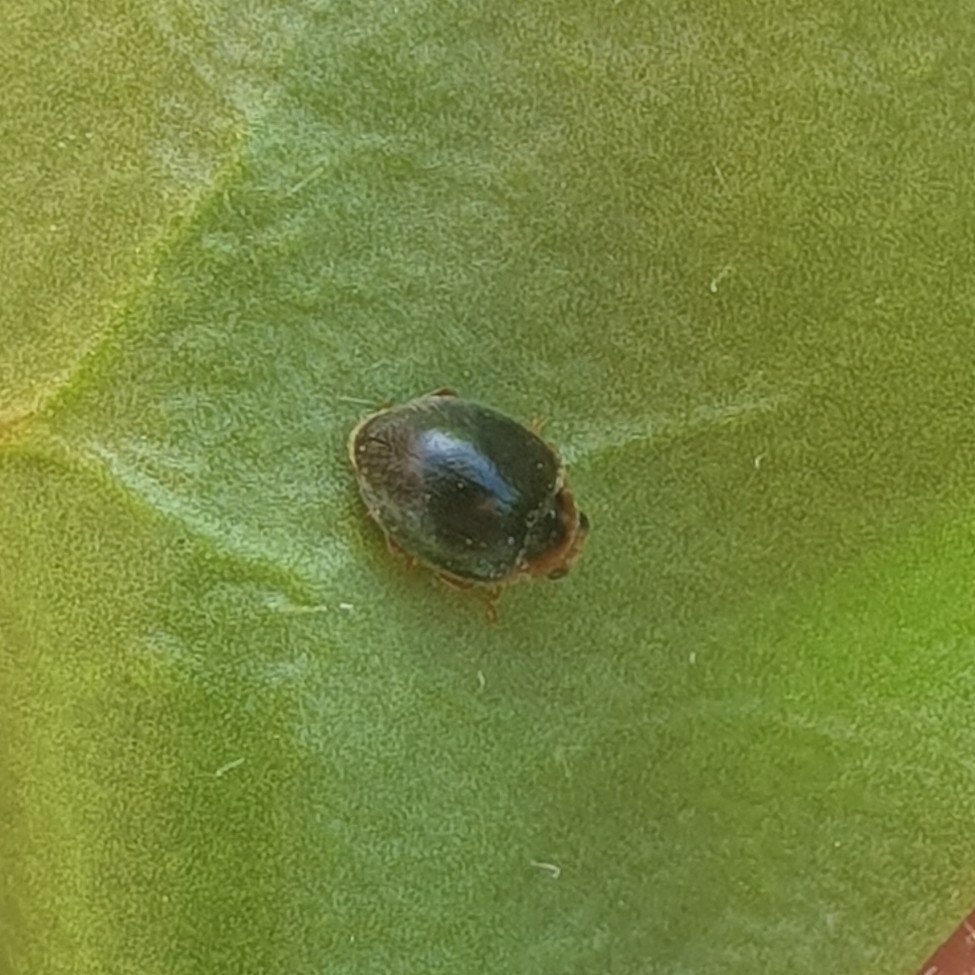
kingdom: Animalia
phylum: Arthropoda
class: Insecta
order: Coleoptera
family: Coccinellidae
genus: Scymnus
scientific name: Scymnus rubromaculatus
